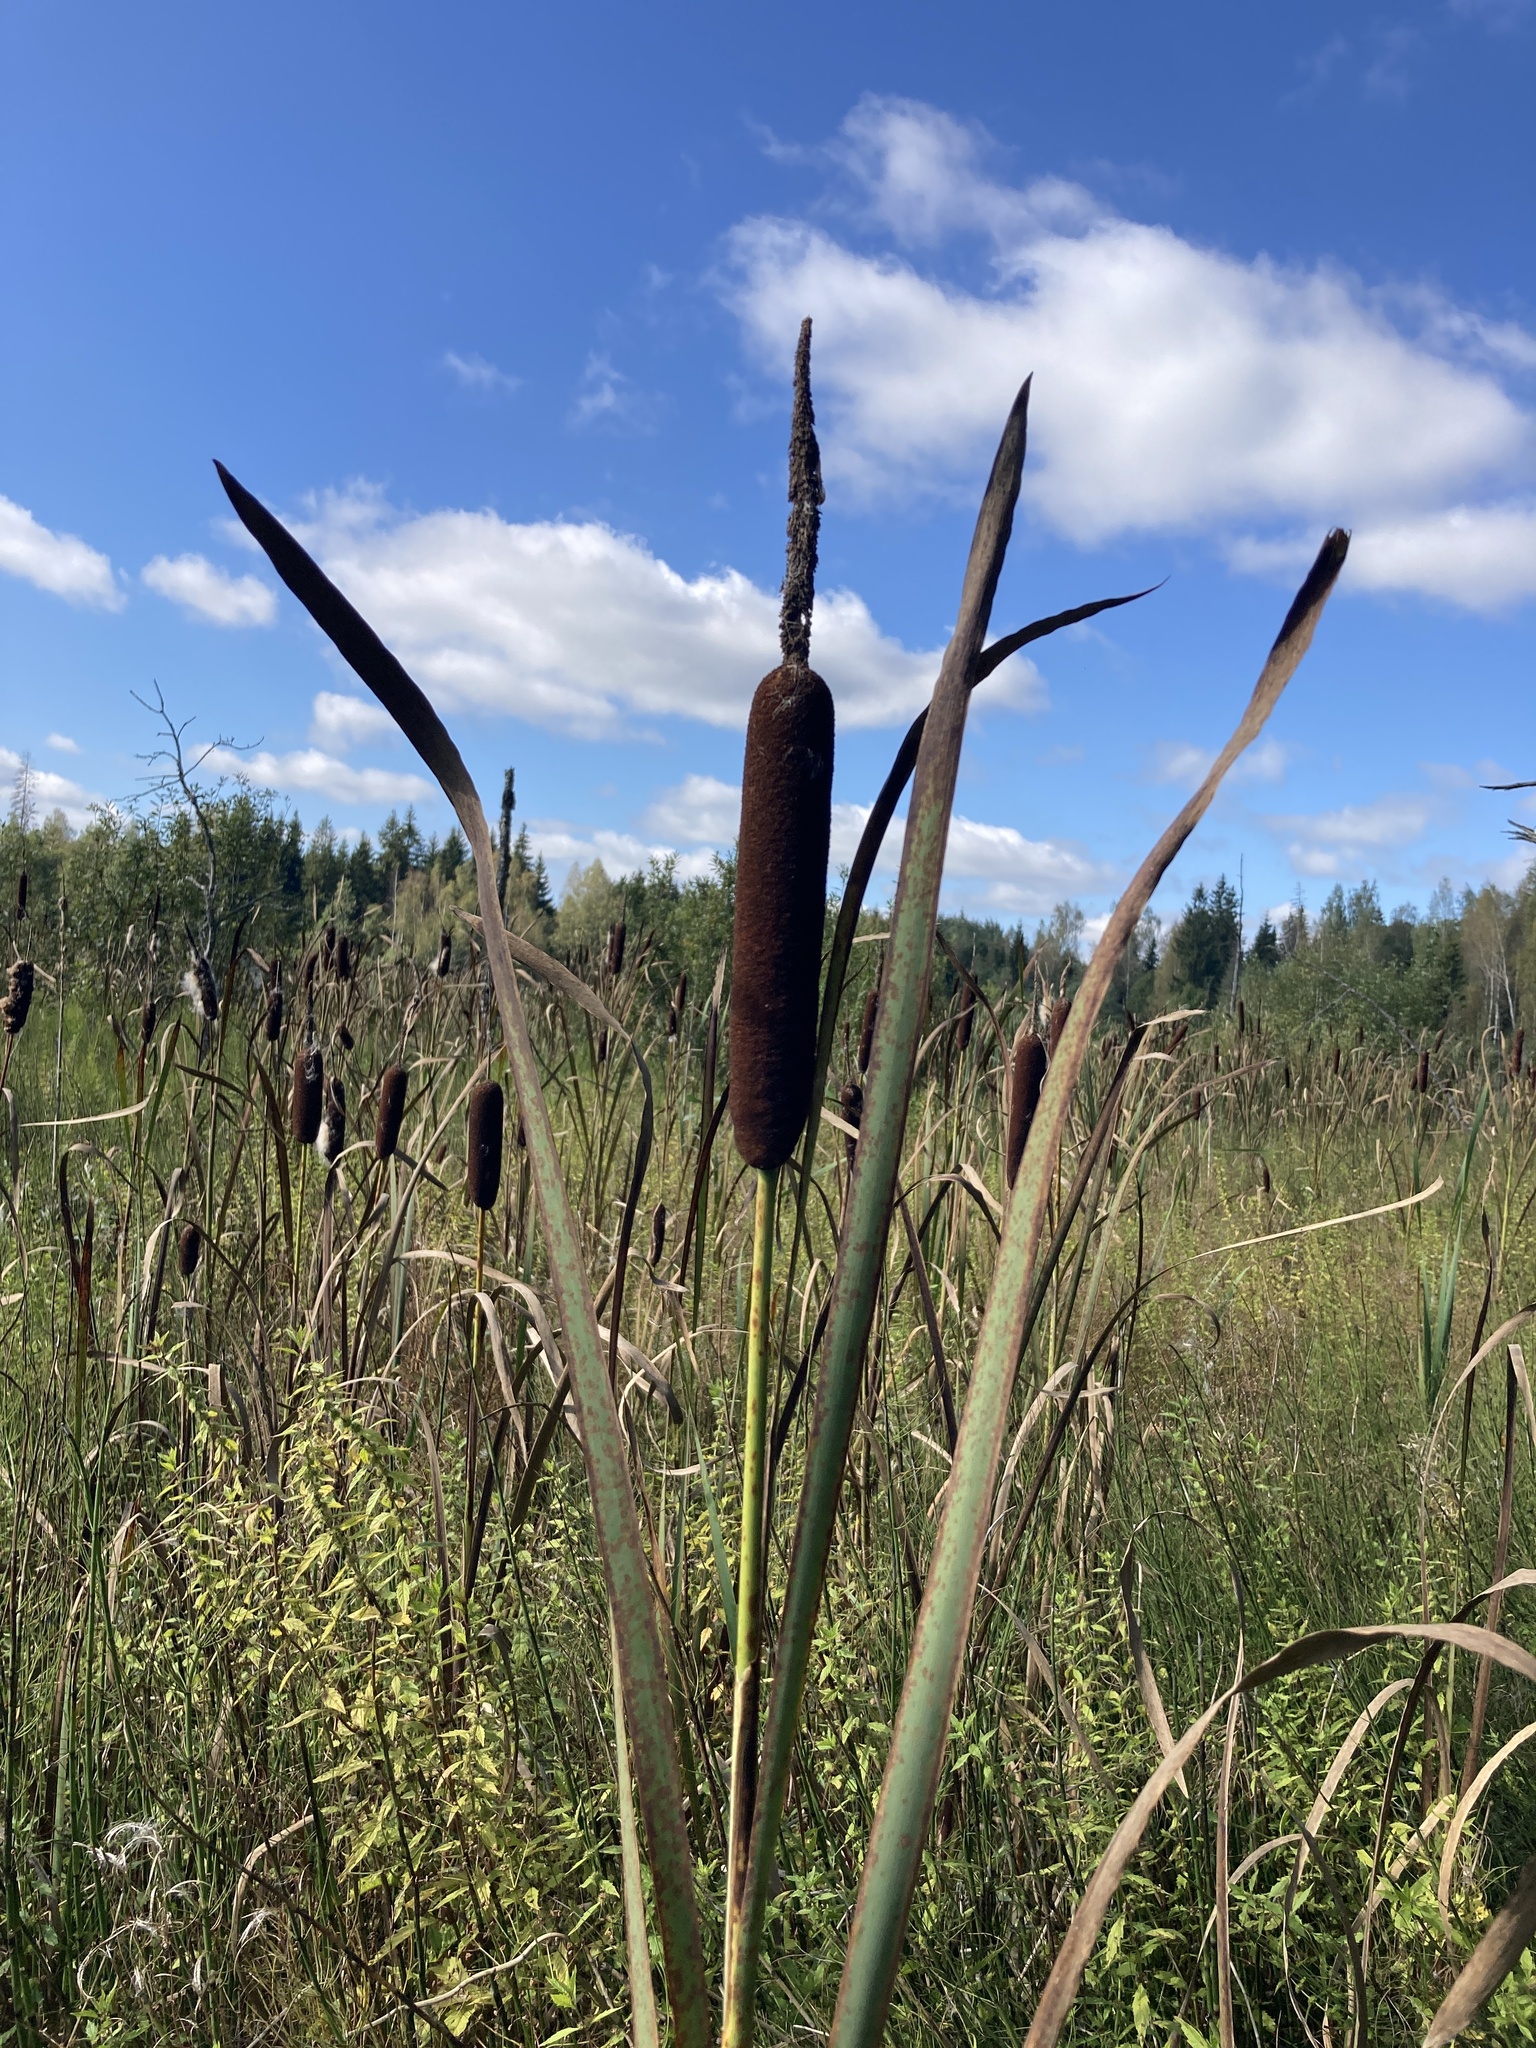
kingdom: Plantae
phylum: Tracheophyta
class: Liliopsida
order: Poales
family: Typhaceae
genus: Typha
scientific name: Typha latifolia
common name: Broadleaf cattail
